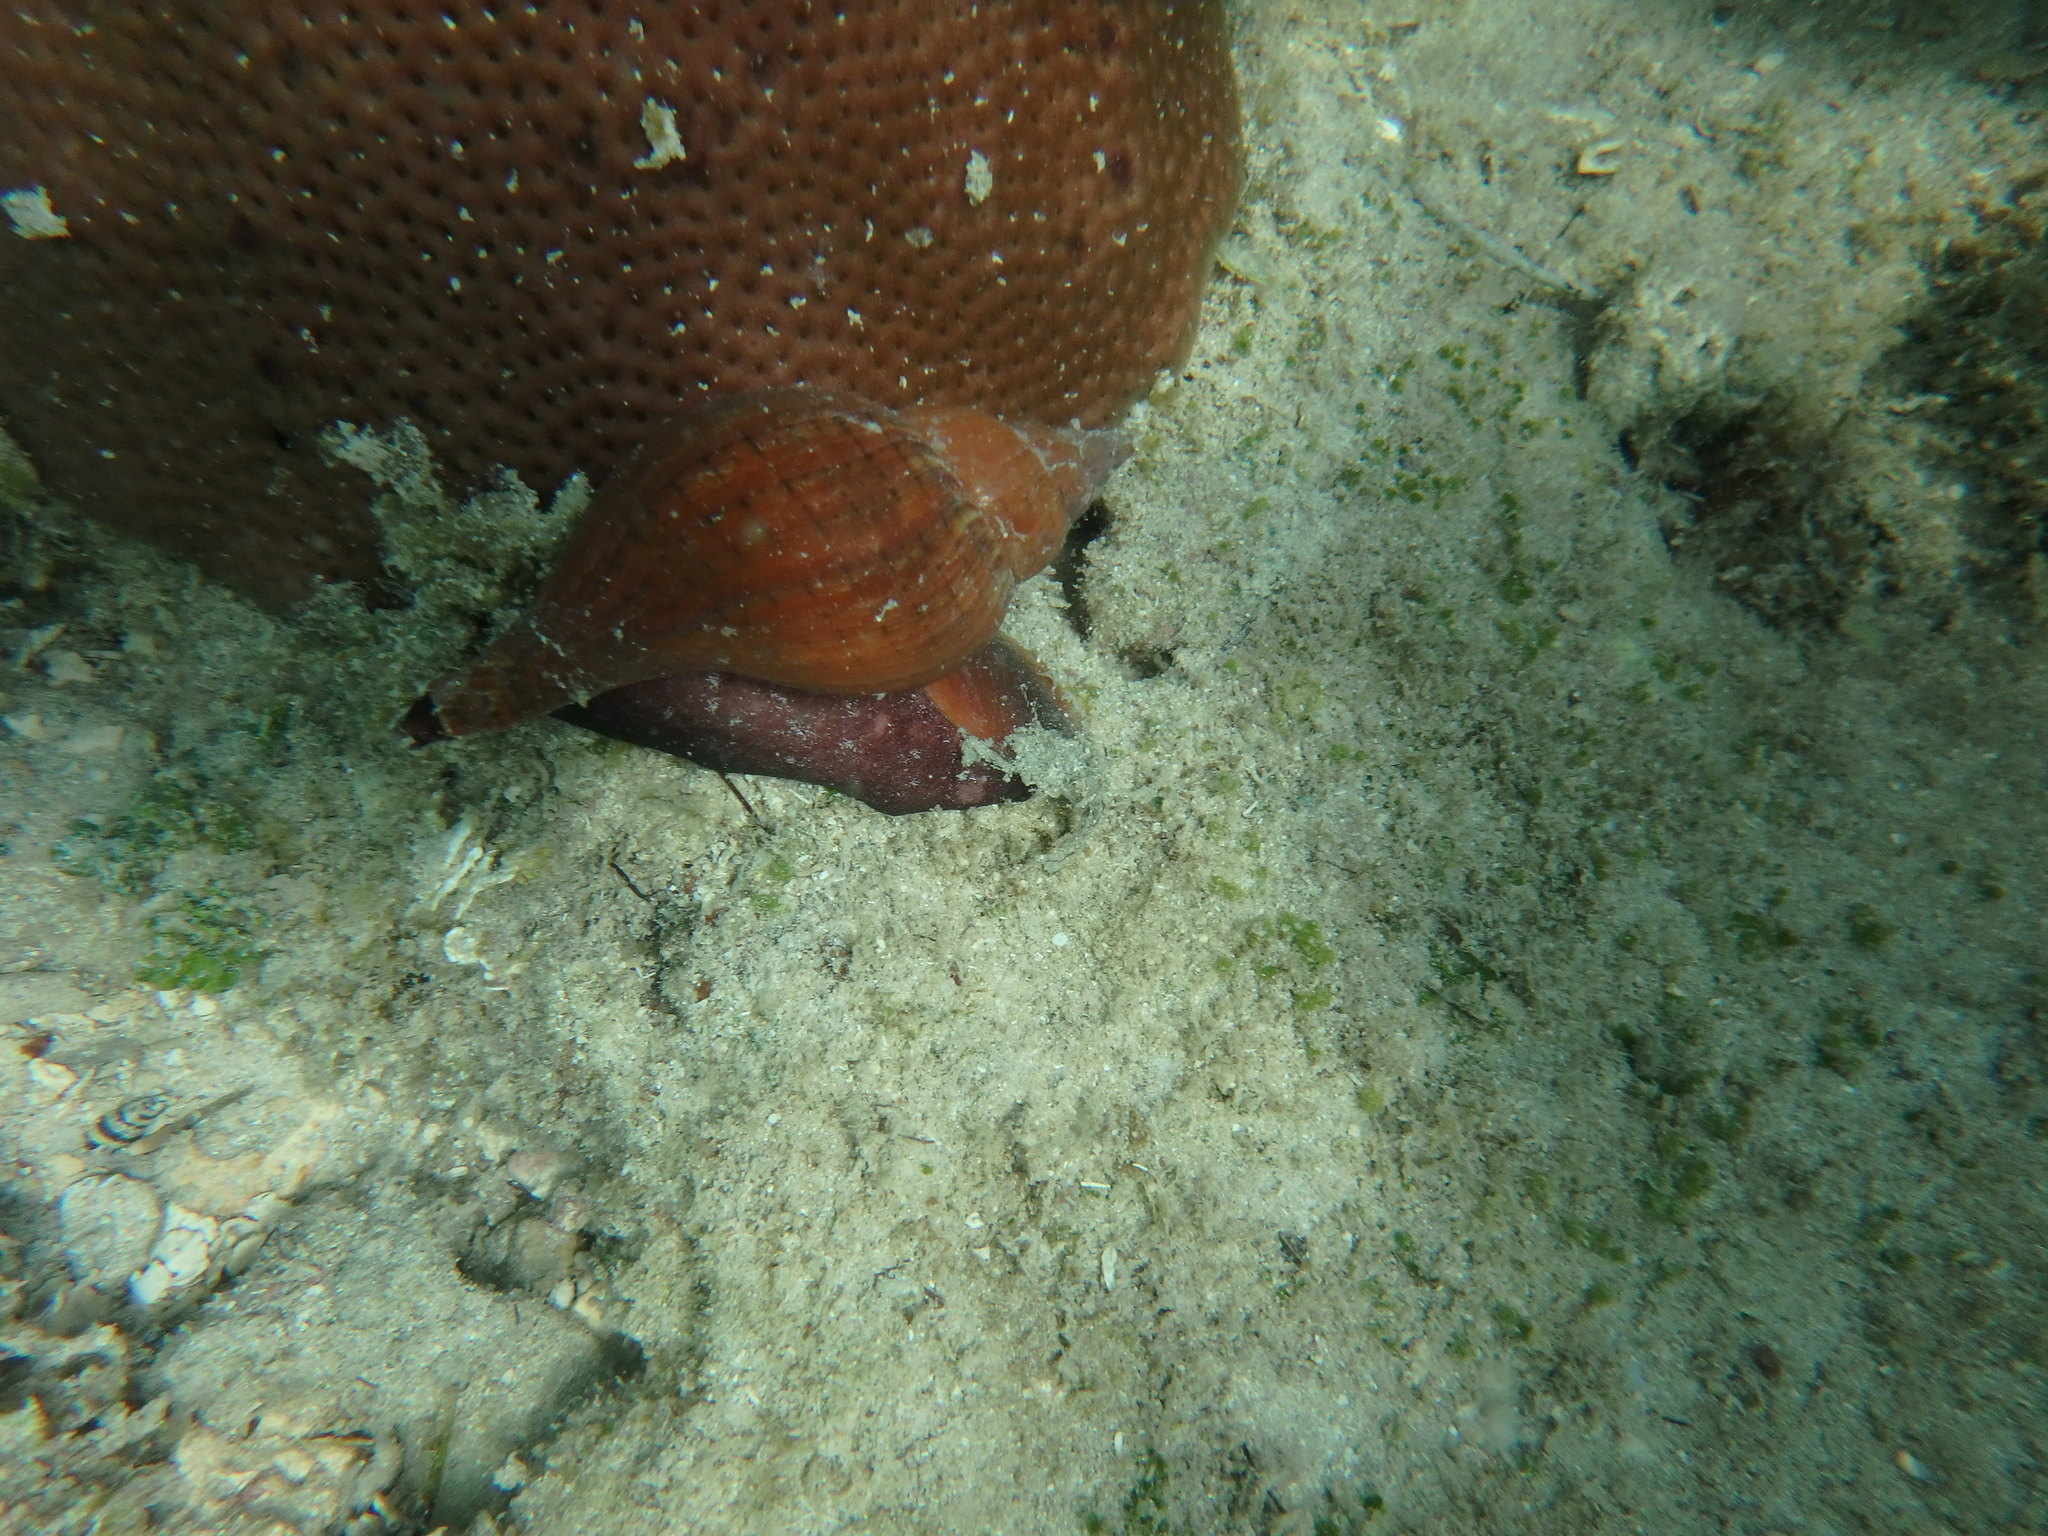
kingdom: Animalia
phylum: Mollusca
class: Gastropoda
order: Neogastropoda
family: Fasciolariidae
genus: Fasciolaria
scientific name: Fasciolaria tulipa
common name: True tulip
